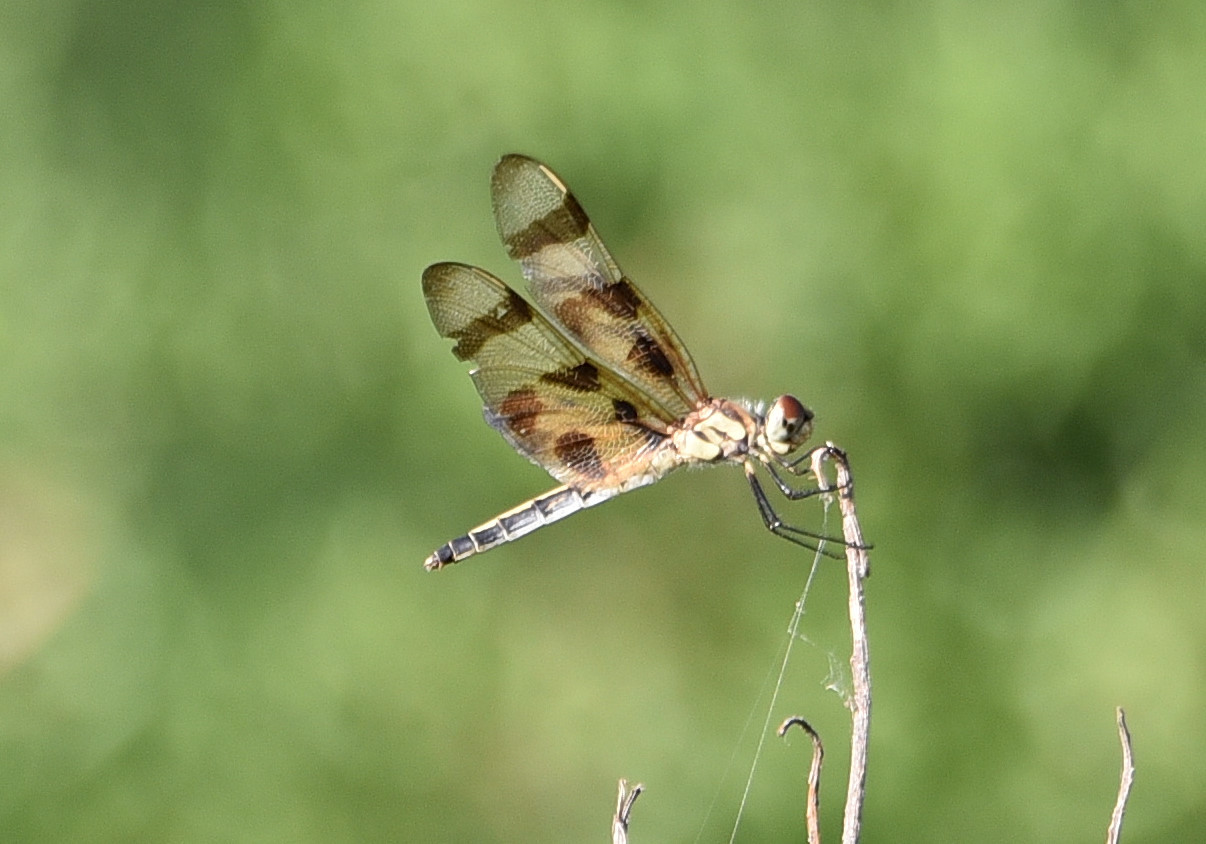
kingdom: Animalia
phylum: Arthropoda
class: Insecta
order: Odonata
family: Libellulidae
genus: Celithemis
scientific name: Celithemis eponina
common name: Halloween pennant
